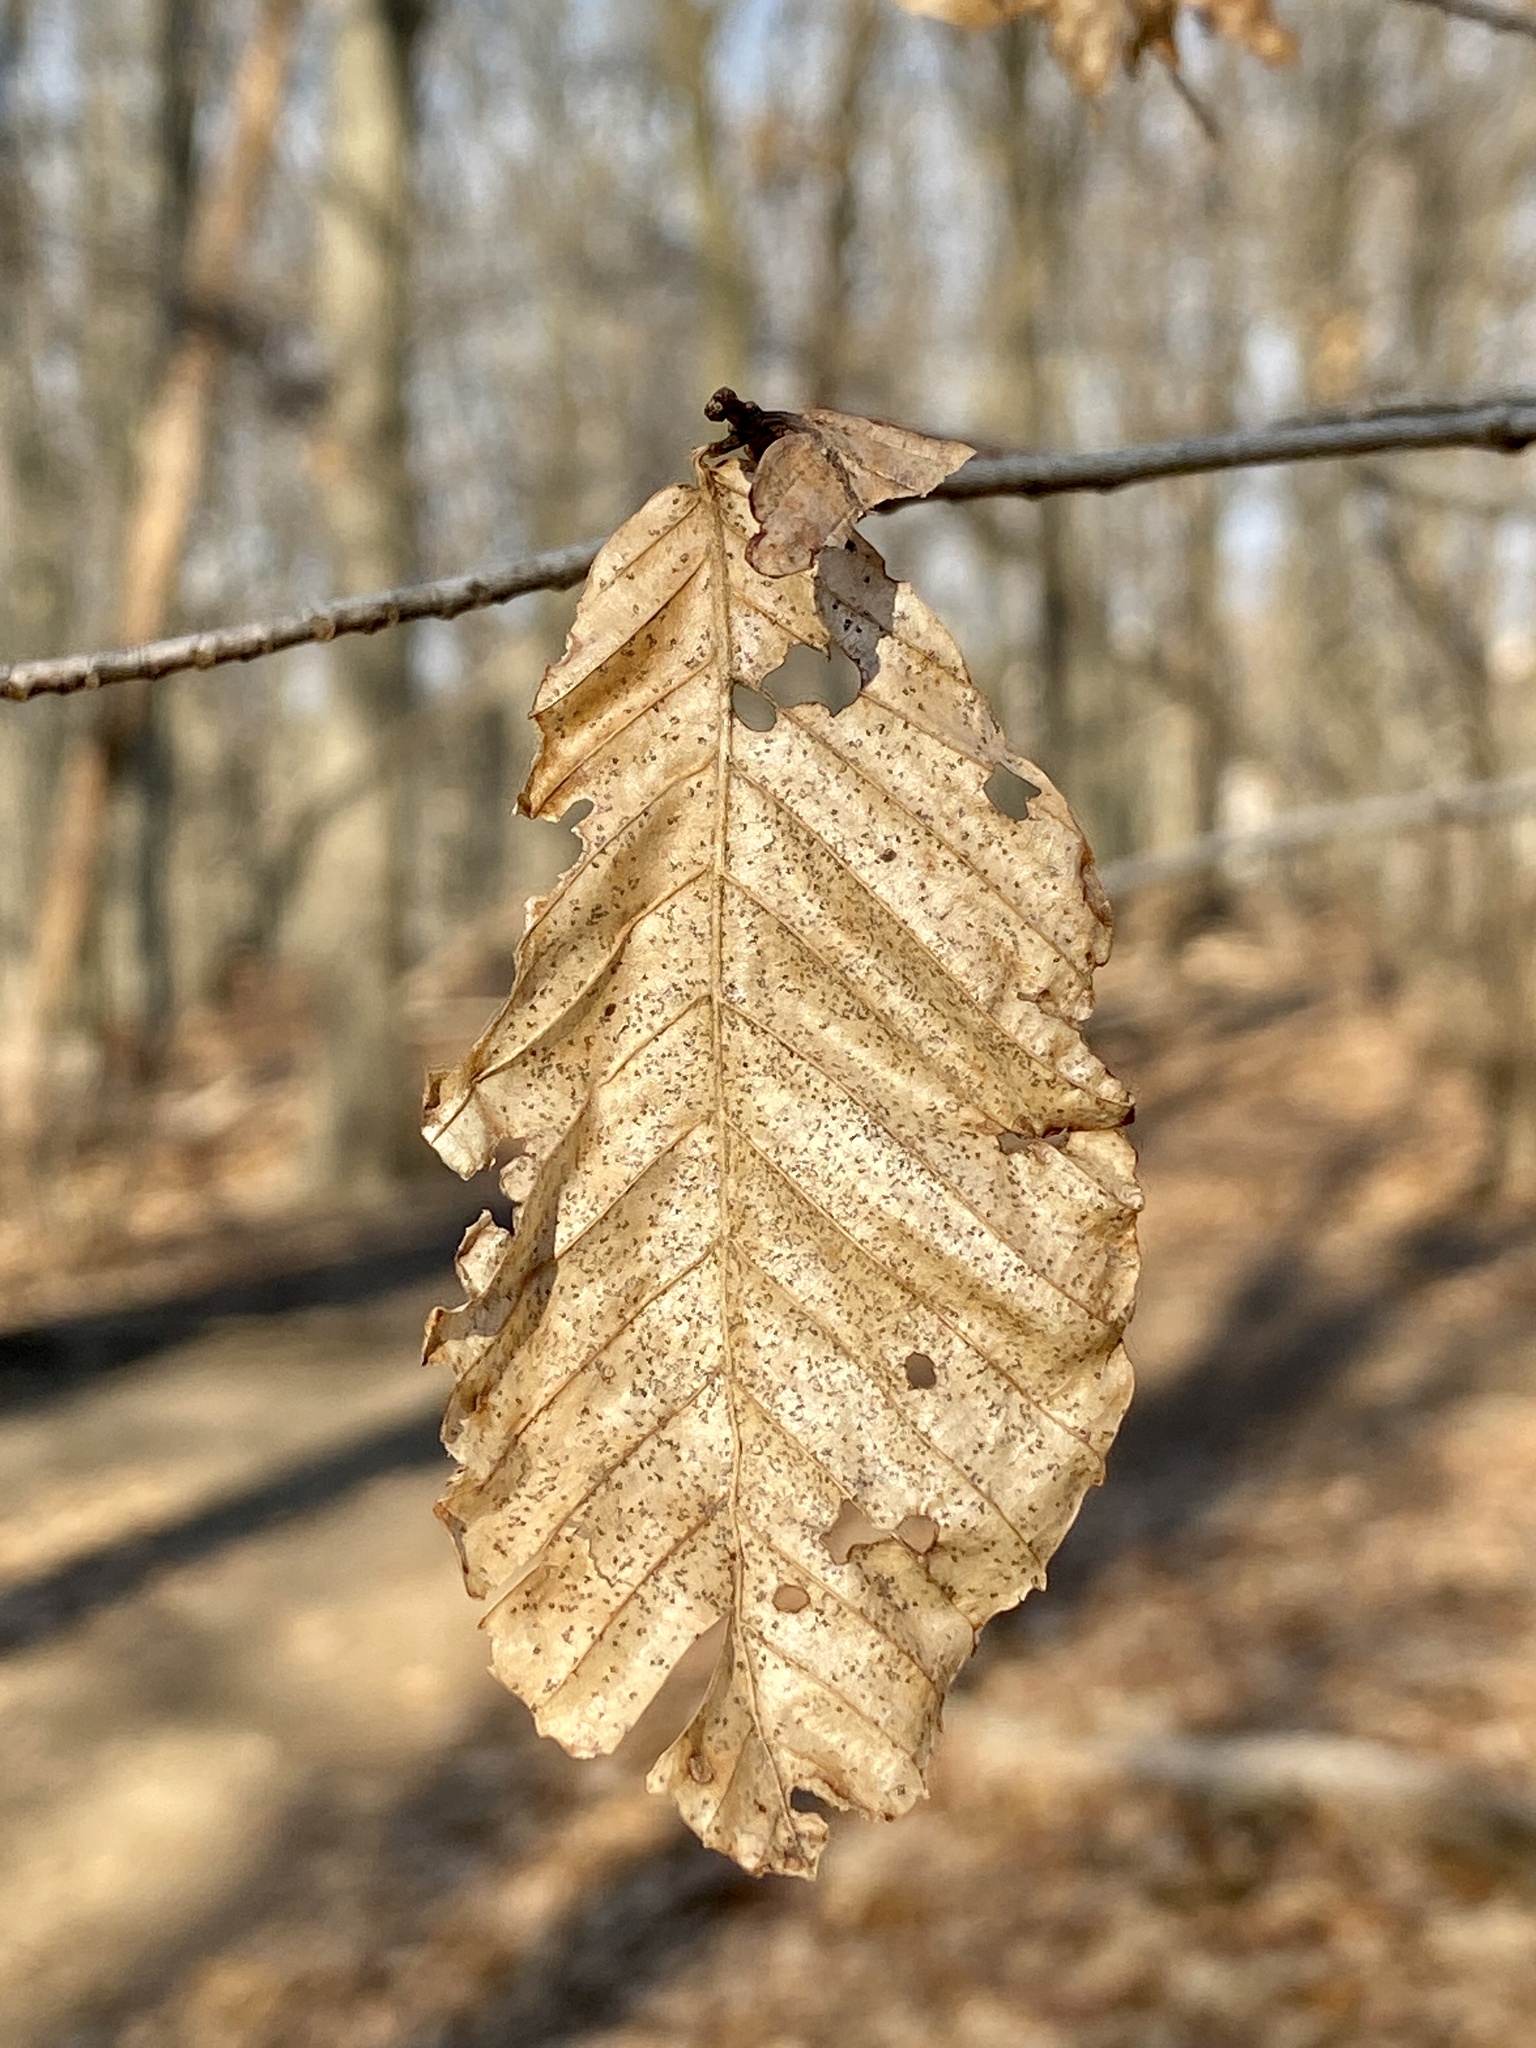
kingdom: Plantae
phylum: Tracheophyta
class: Magnoliopsida
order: Fagales
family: Fagaceae
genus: Fagus
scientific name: Fagus grandifolia
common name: American beech
